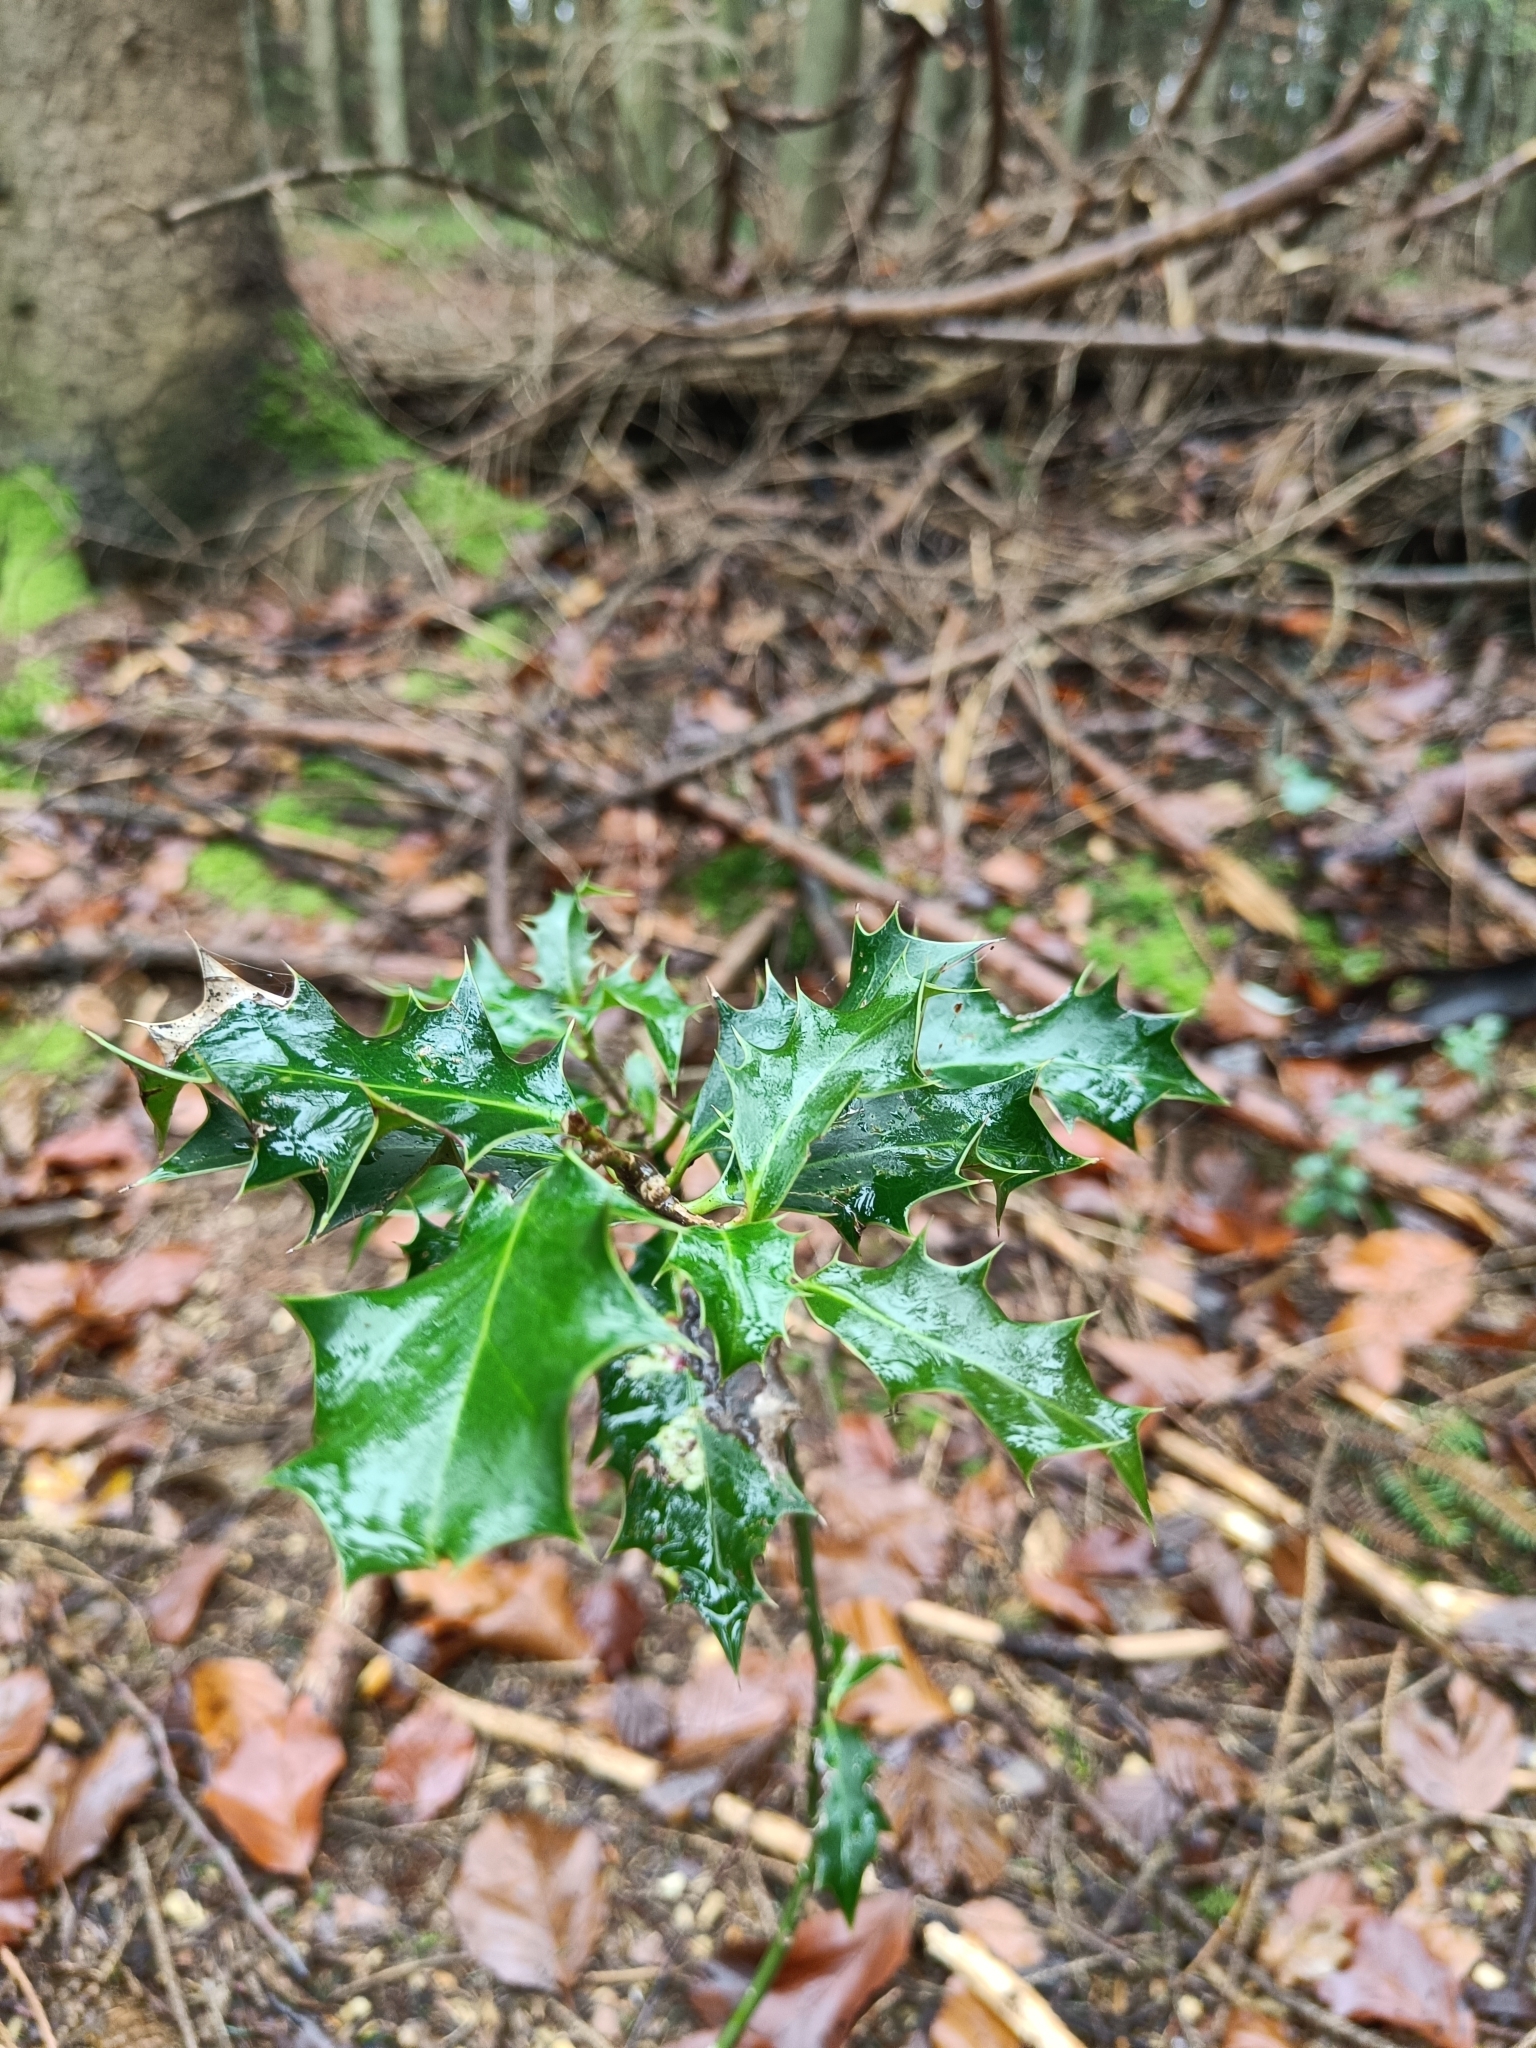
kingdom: Plantae
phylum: Tracheophyta
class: Magnoliopsida
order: Aquifoliales
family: Aquifoliaceae
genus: Ilex
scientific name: Ilex aquifolium
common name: English holly
